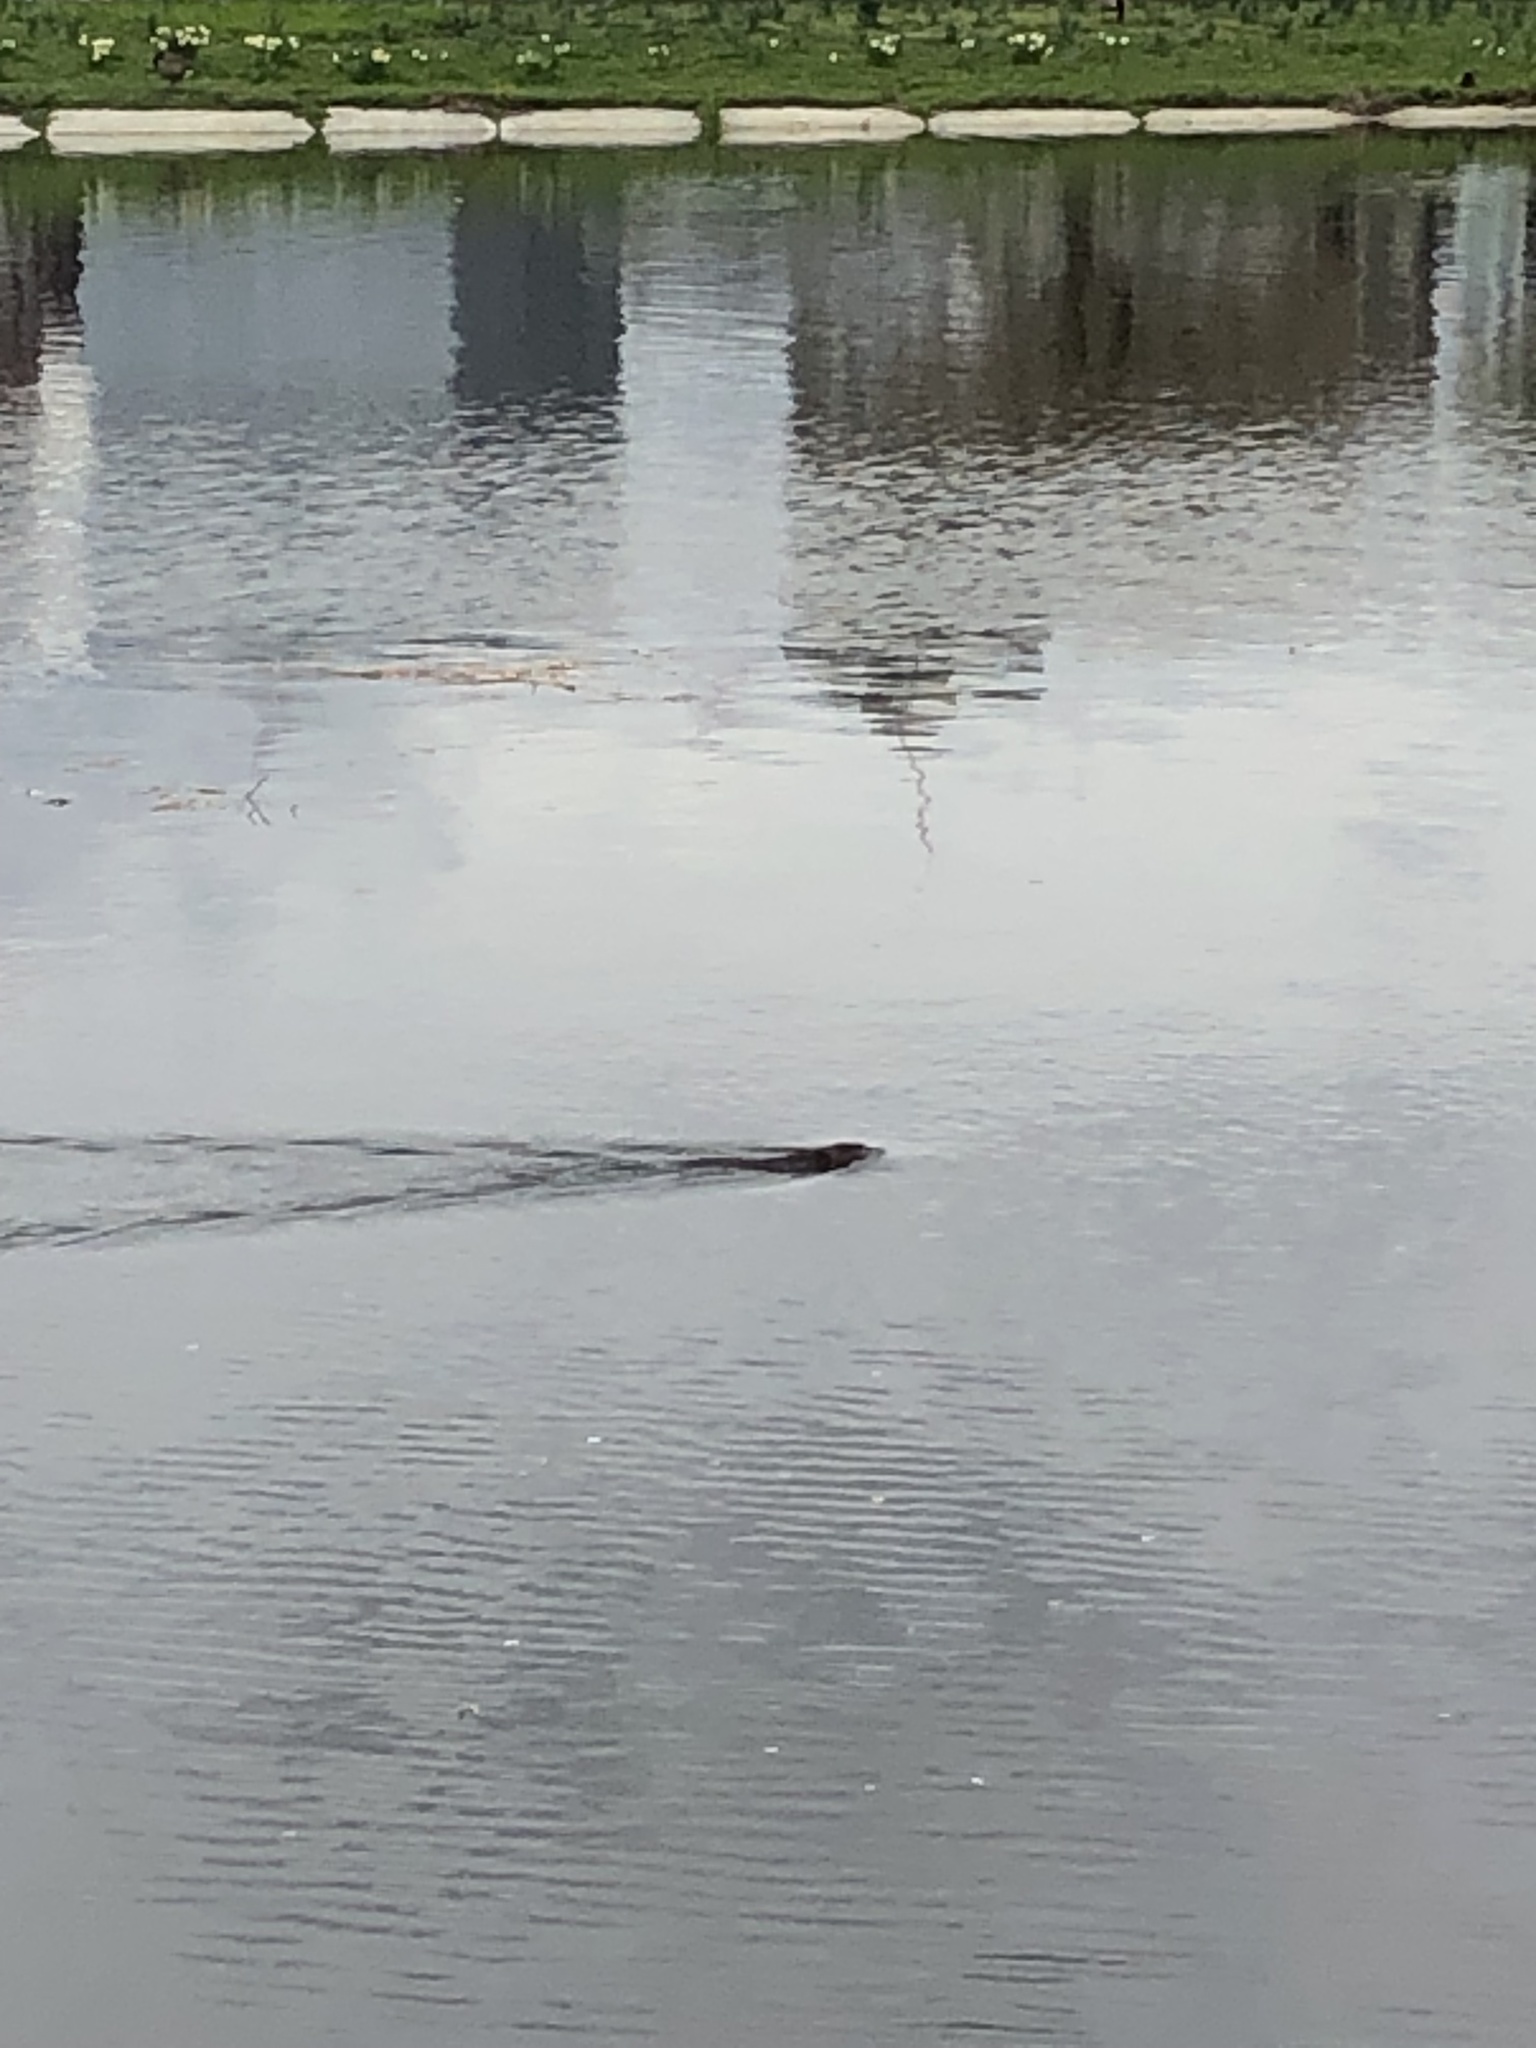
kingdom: Animalia
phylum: Chordata
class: Mammalia
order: Rodentia
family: Cricetidae
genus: Ondatra
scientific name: Ondatra zibethicus
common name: Muskrat
